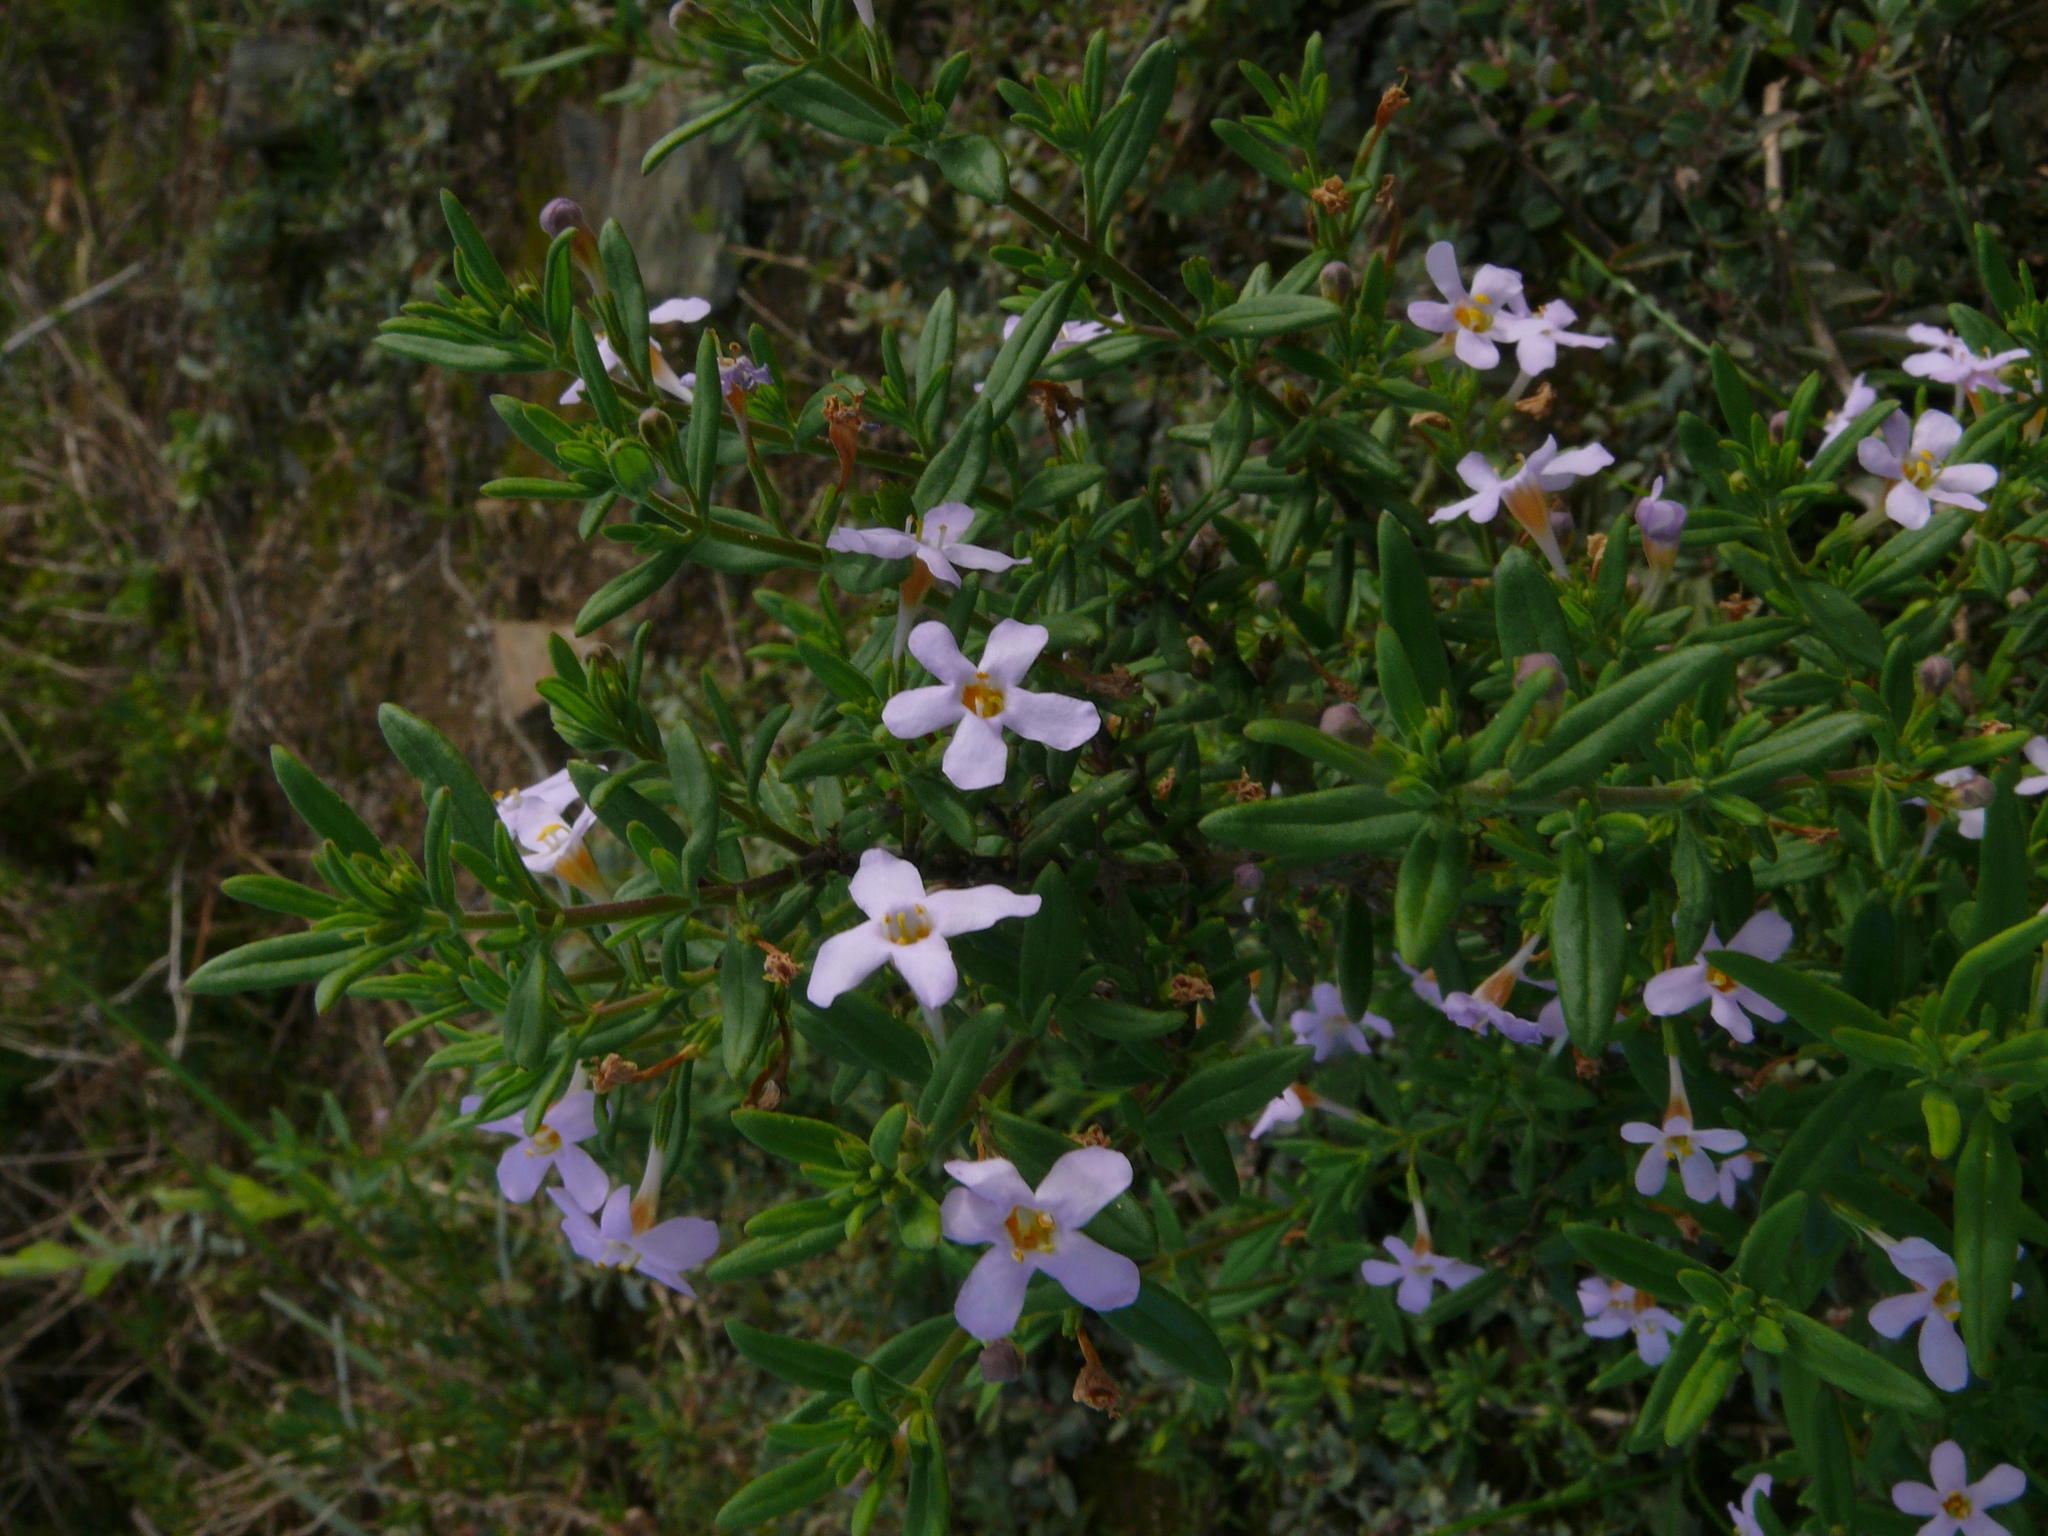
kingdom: Plantae
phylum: Tracheophyta
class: Magnoliopsida
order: Lamiales
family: Scrophulariaceae
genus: Chaenostoma
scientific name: Chaenostoma revolutum
